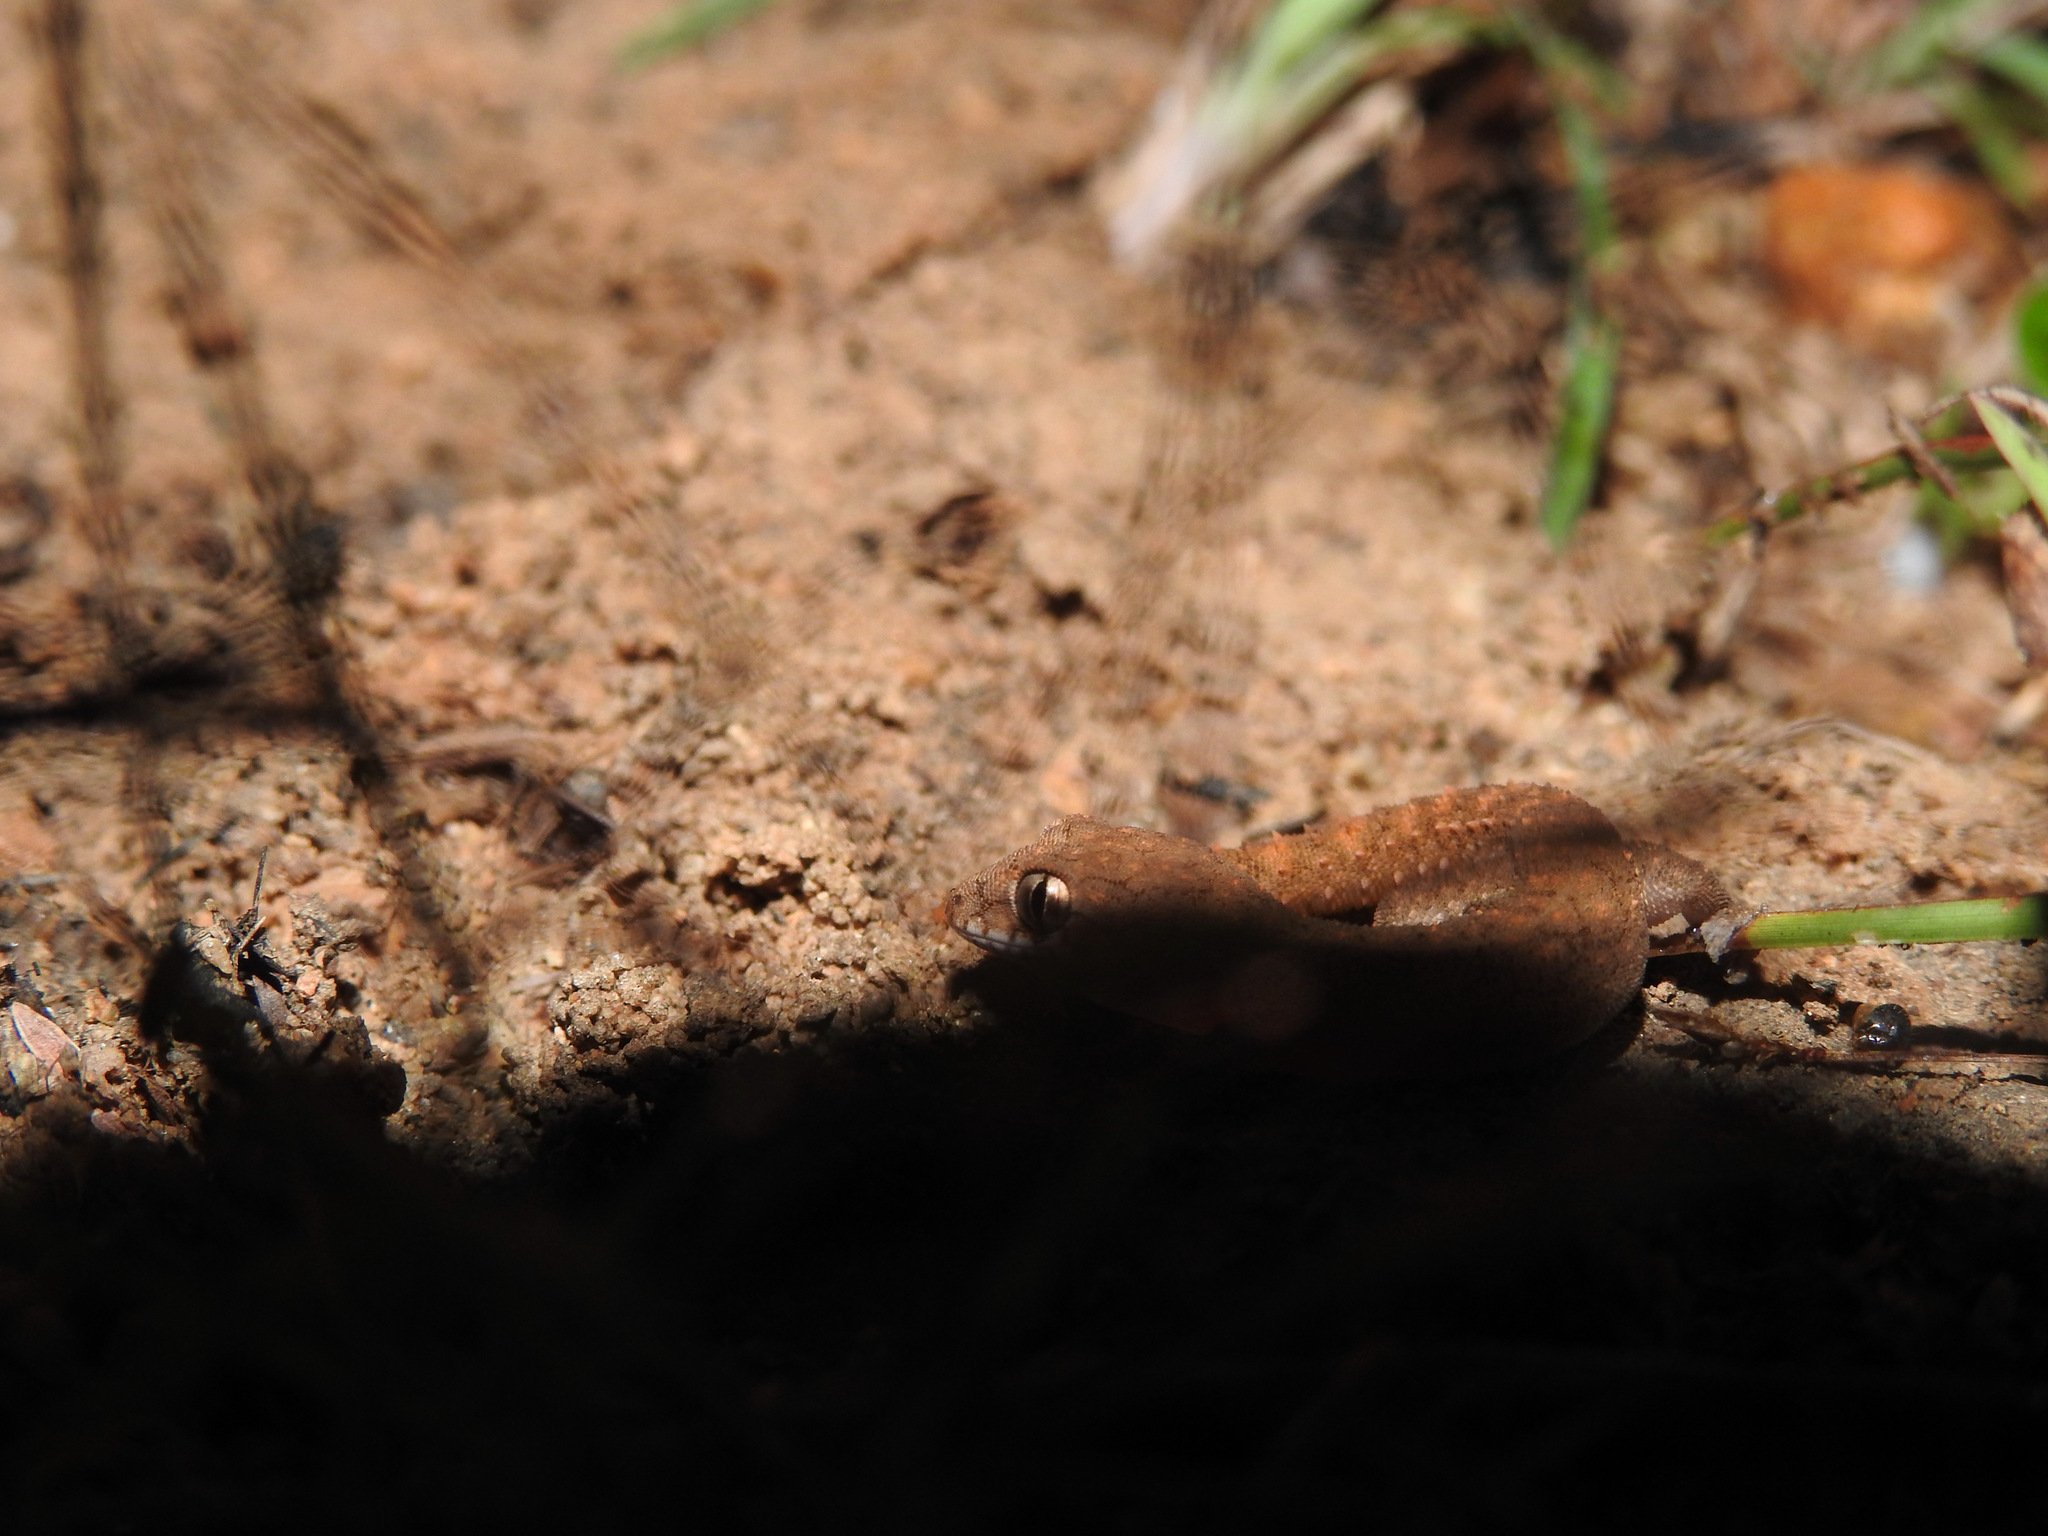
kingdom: Animalia
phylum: Chordata
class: Squamata
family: Gekkonidae
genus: Hemidactylus
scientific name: Hemidactylus reticulatus
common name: Reticulate leaf-toed gecko
